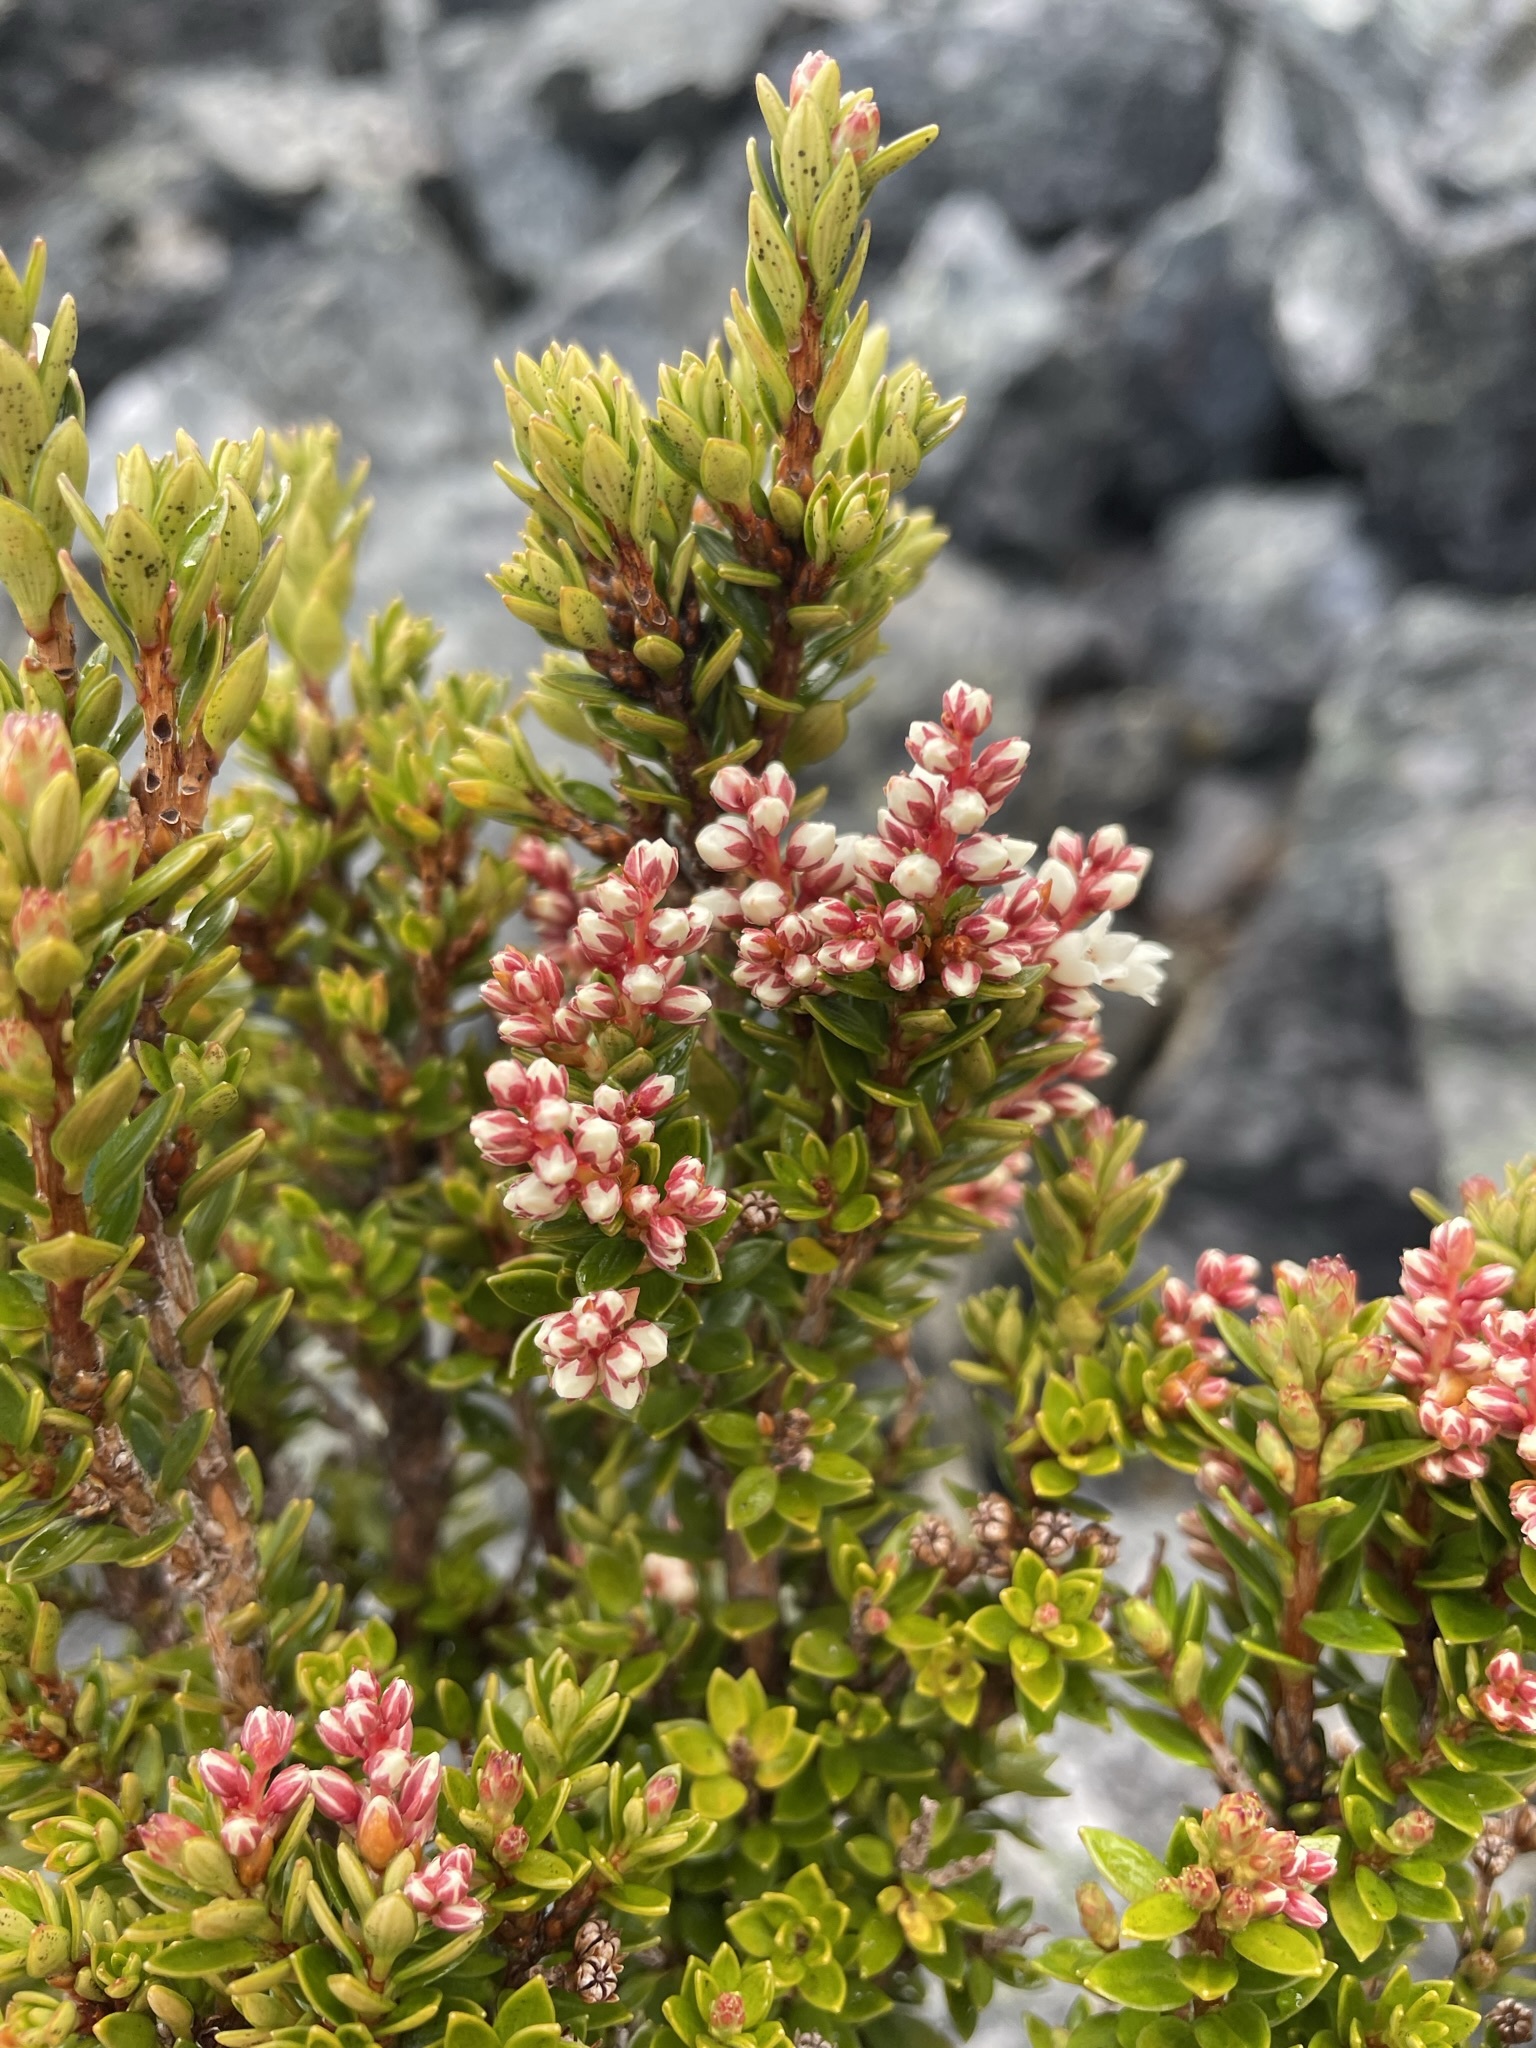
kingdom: Plantae
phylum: Tracheophyta
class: Magnoliopsida
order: Ericales
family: Ericaceae
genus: Archeria
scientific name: Archeria serpyllifolia
